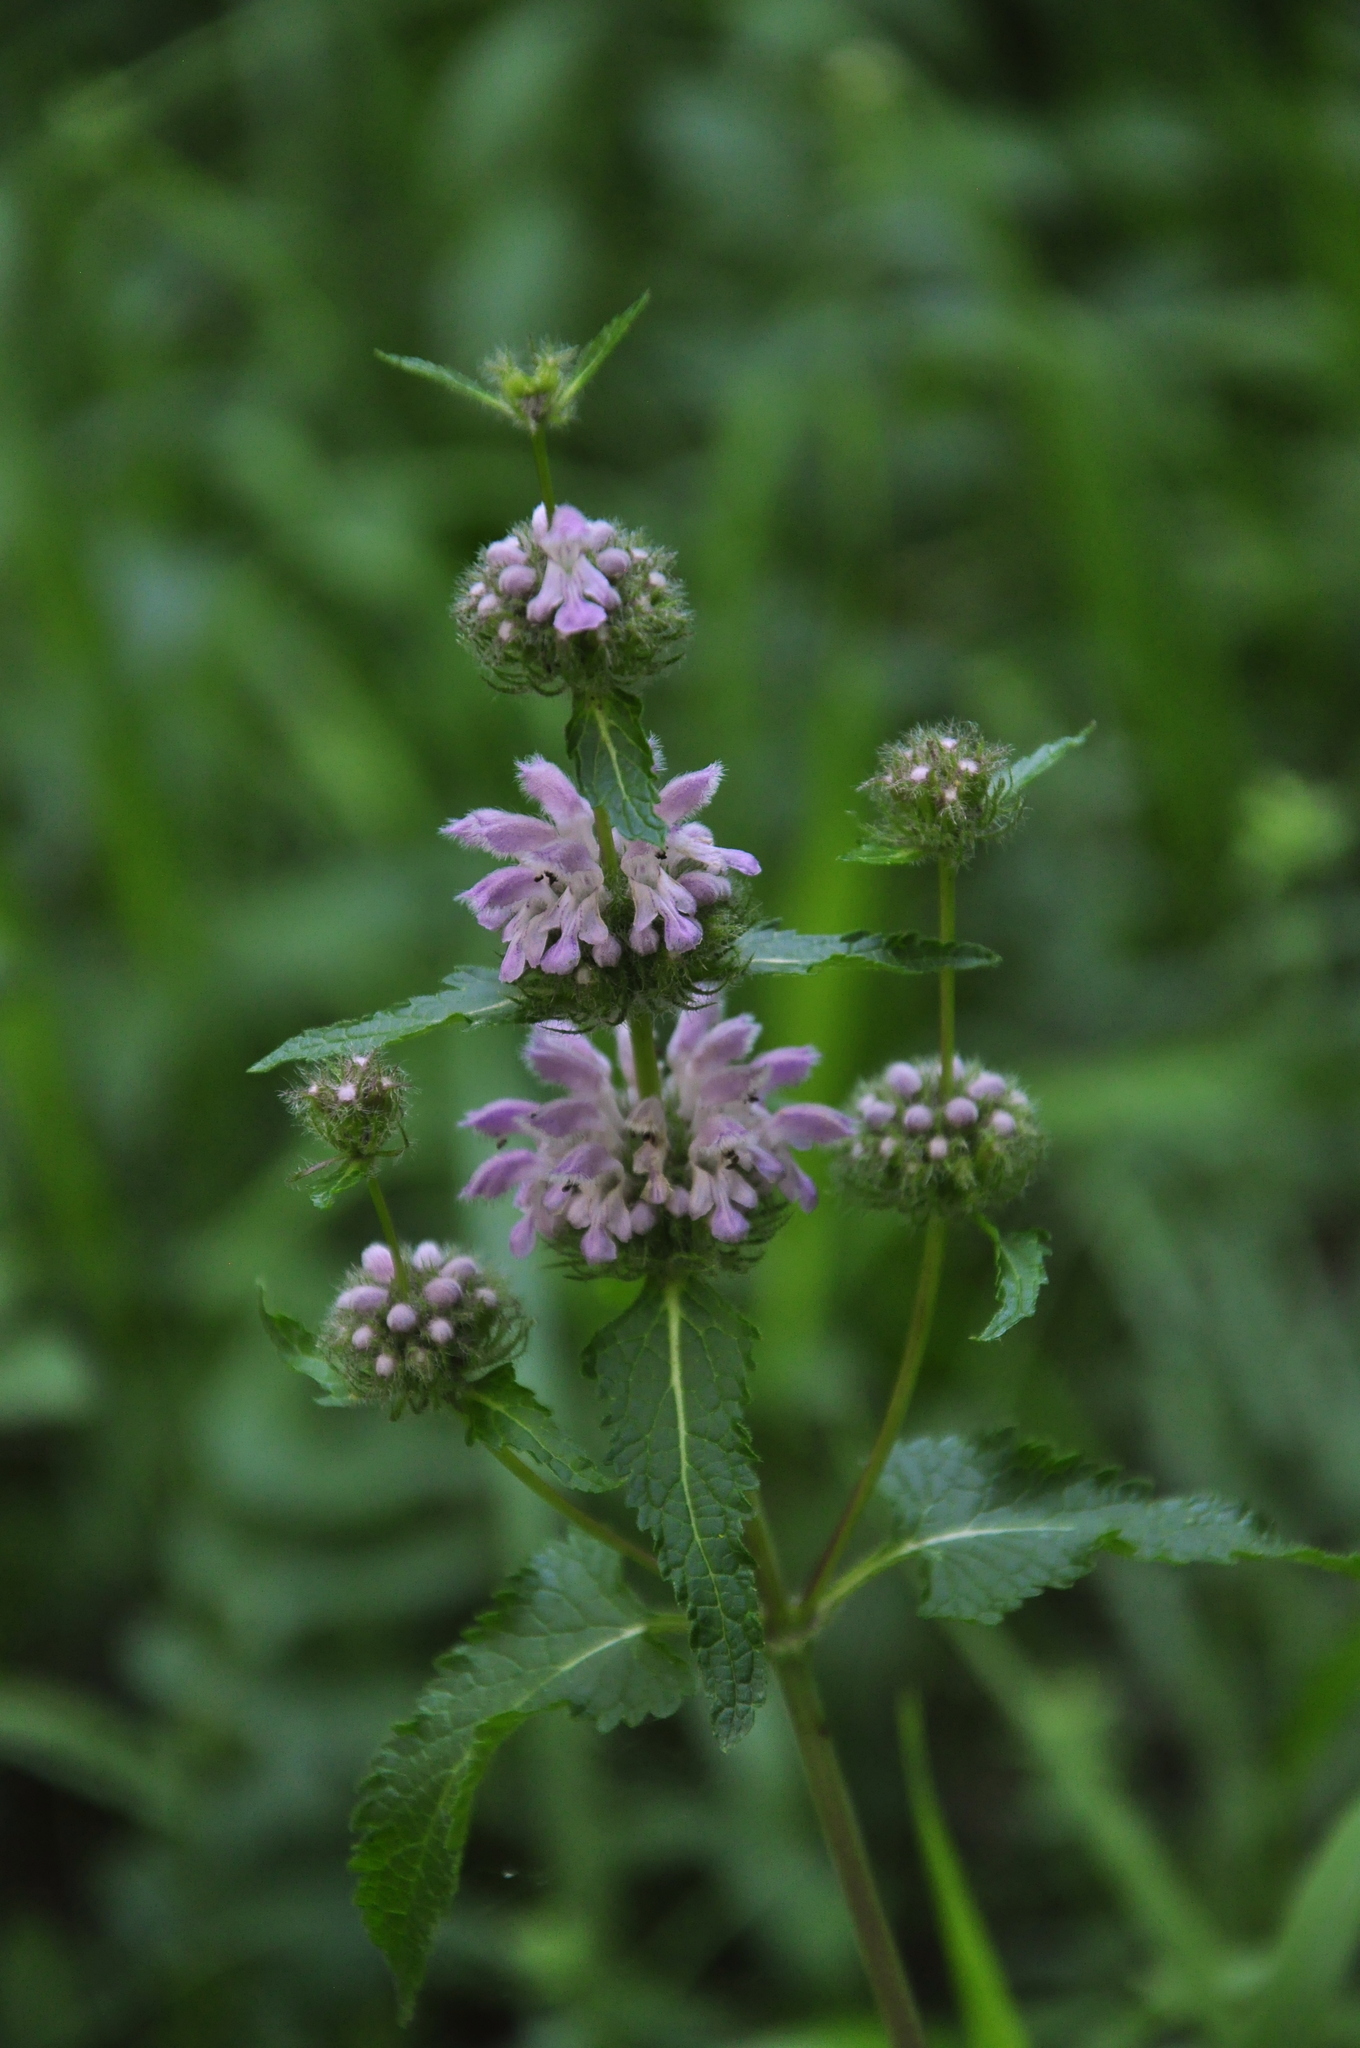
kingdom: Plantae
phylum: Tracheophyta
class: Magnoliopsida
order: Lamiales
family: Lamiaceae
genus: Phlomoides
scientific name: Phlomoides tuberosa
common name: Tuberous jerusalem sage
